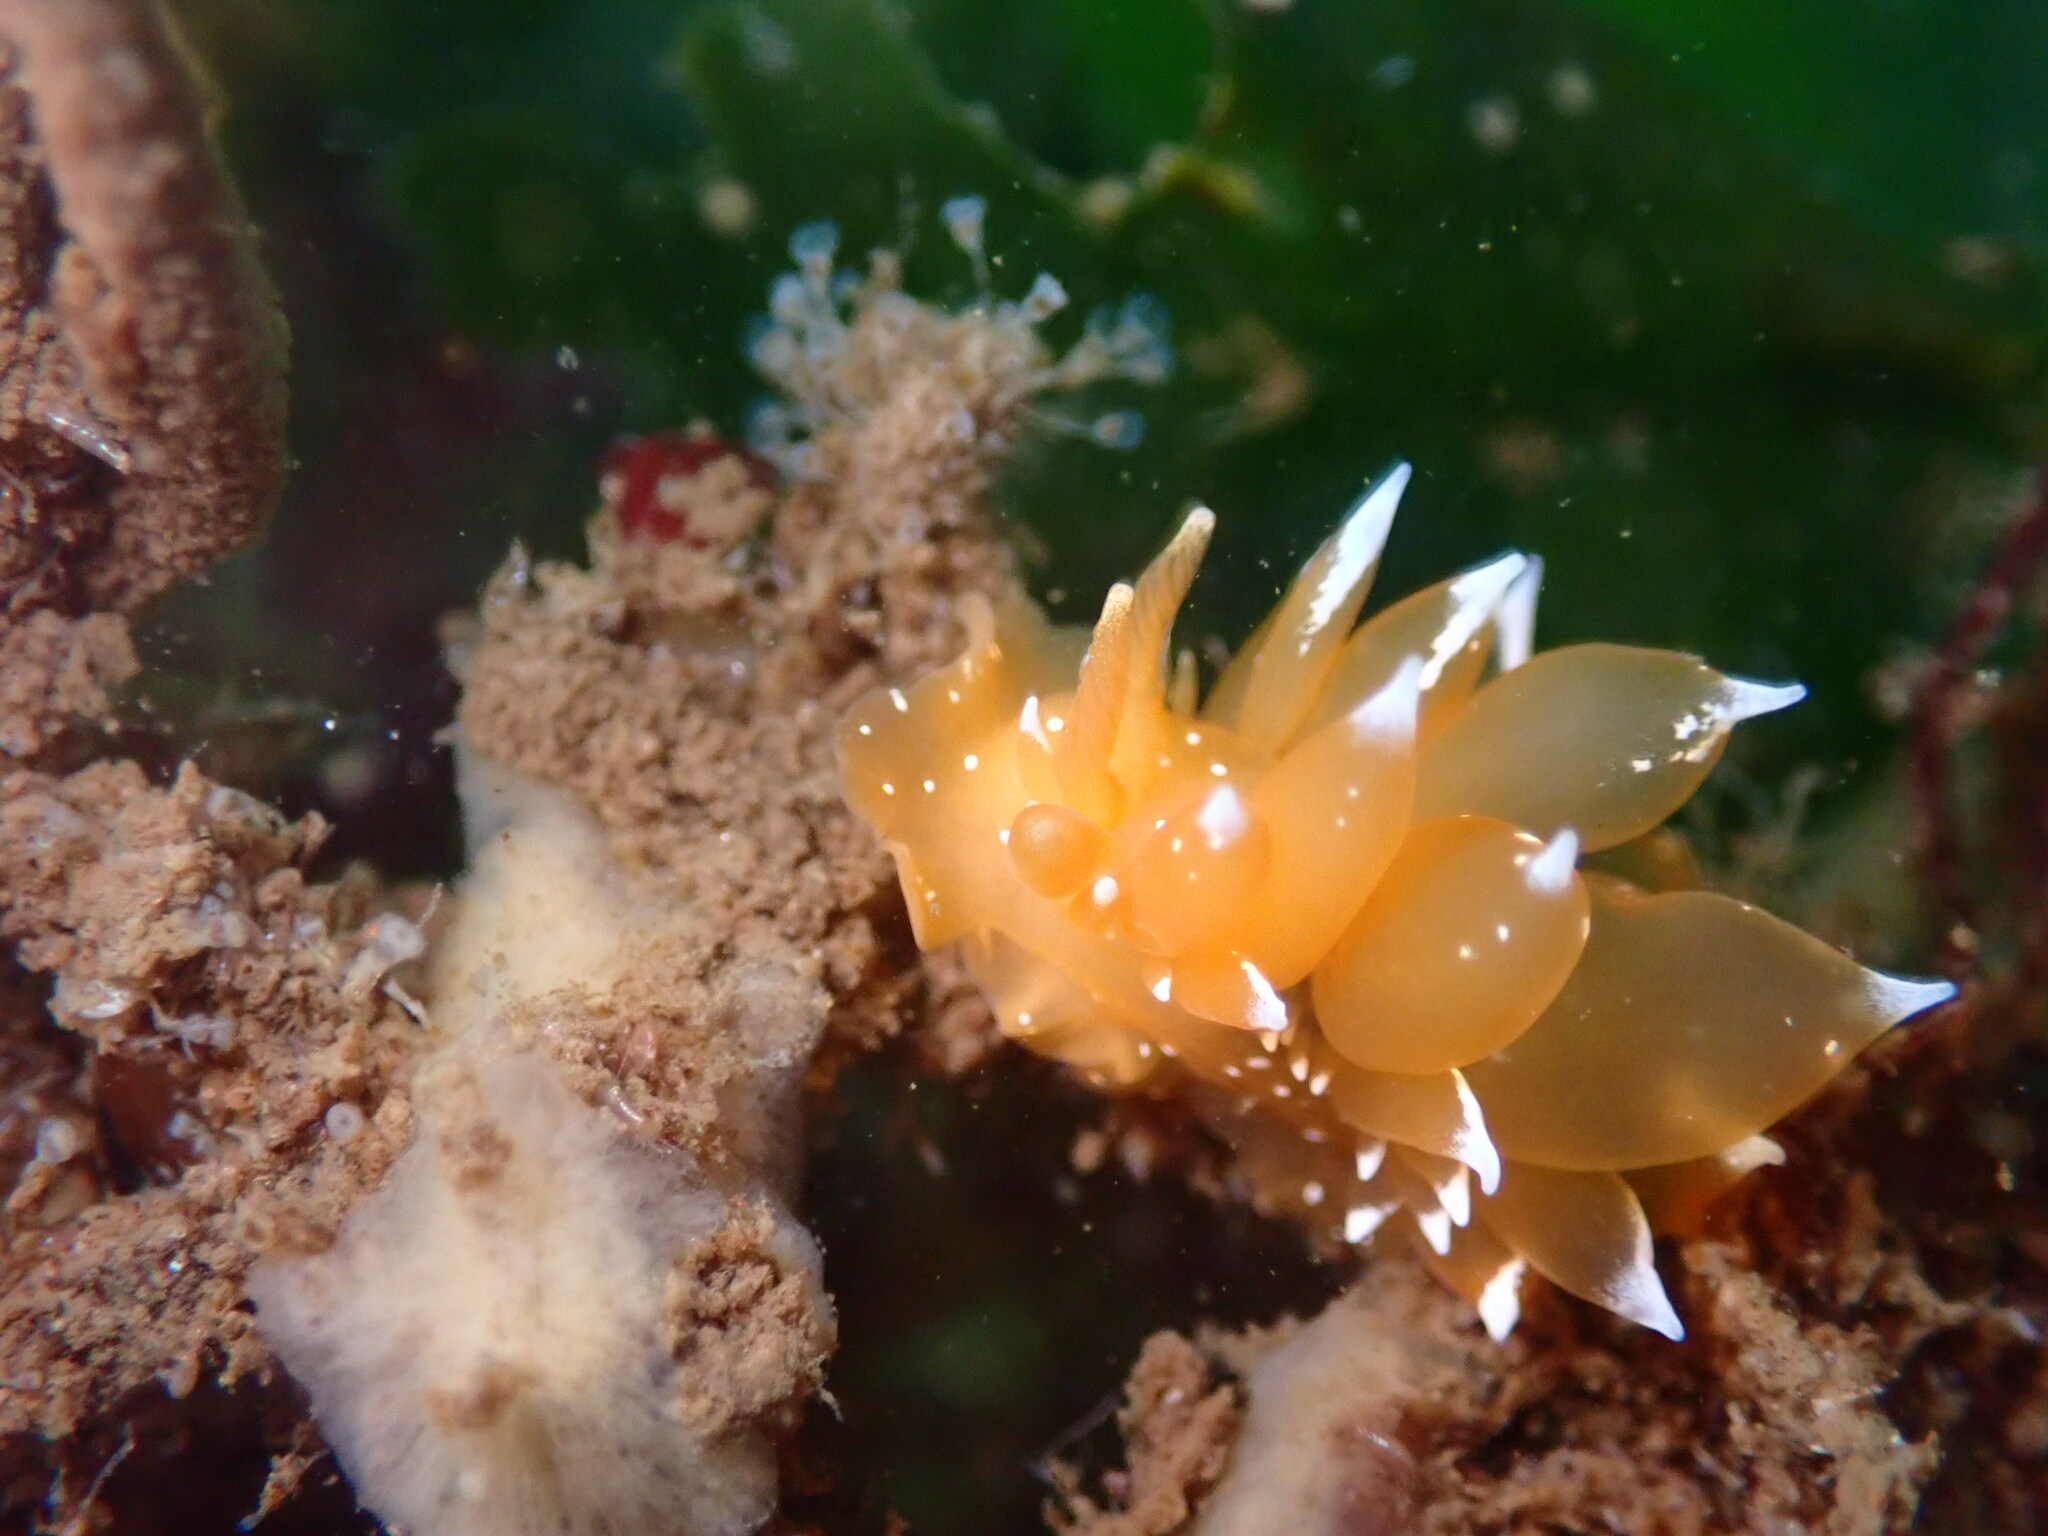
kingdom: Animalia
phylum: Mollusca
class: Gastropoda
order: Nudibranchia
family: Dironidae
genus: Dirona
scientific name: Dirona pellucida
